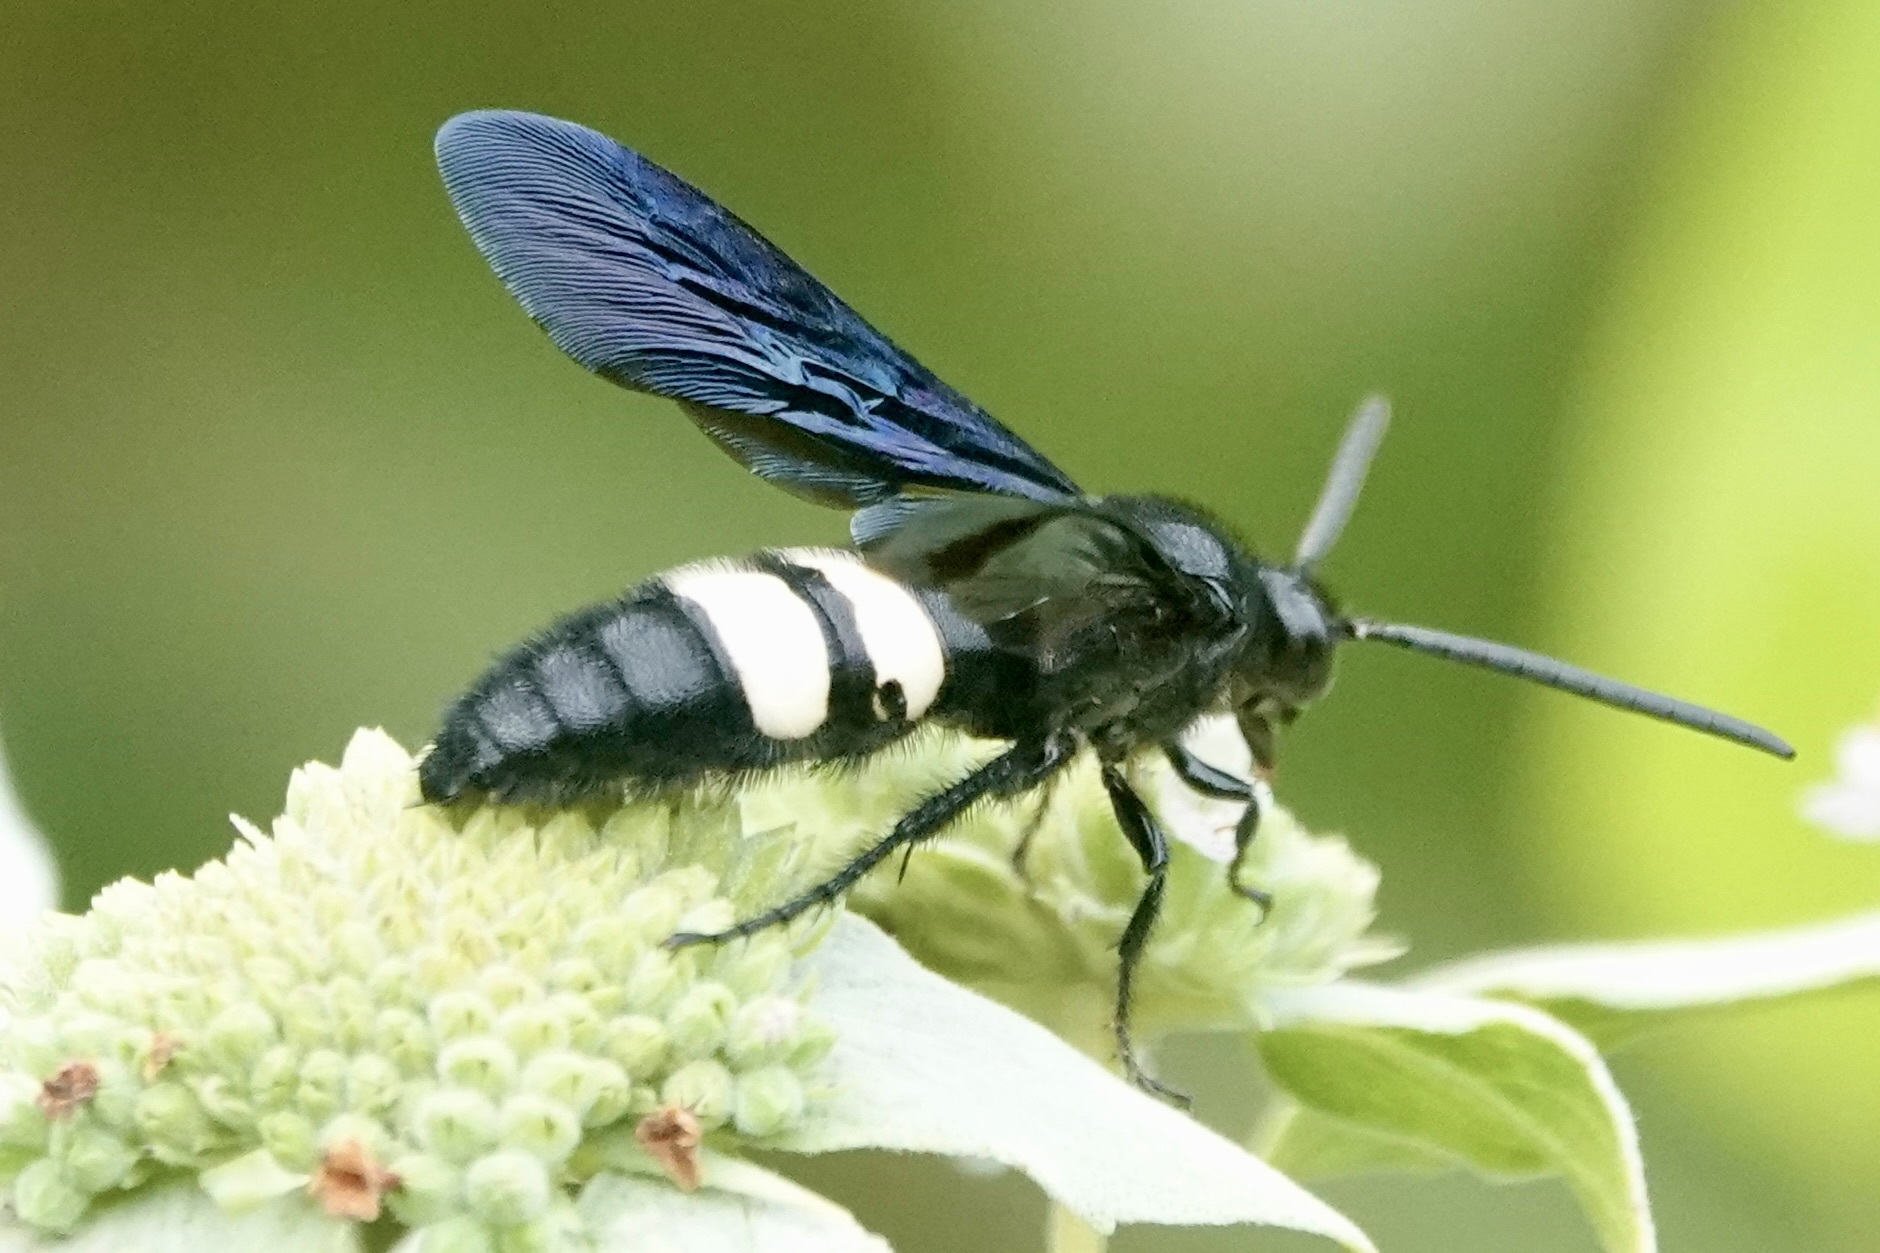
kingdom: Animalia
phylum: Arthropoda
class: Insecta
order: Hymenoptera
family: Scoliidae
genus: Scolia
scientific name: Scolia bicincta
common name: Double-banded scoliid wasp
